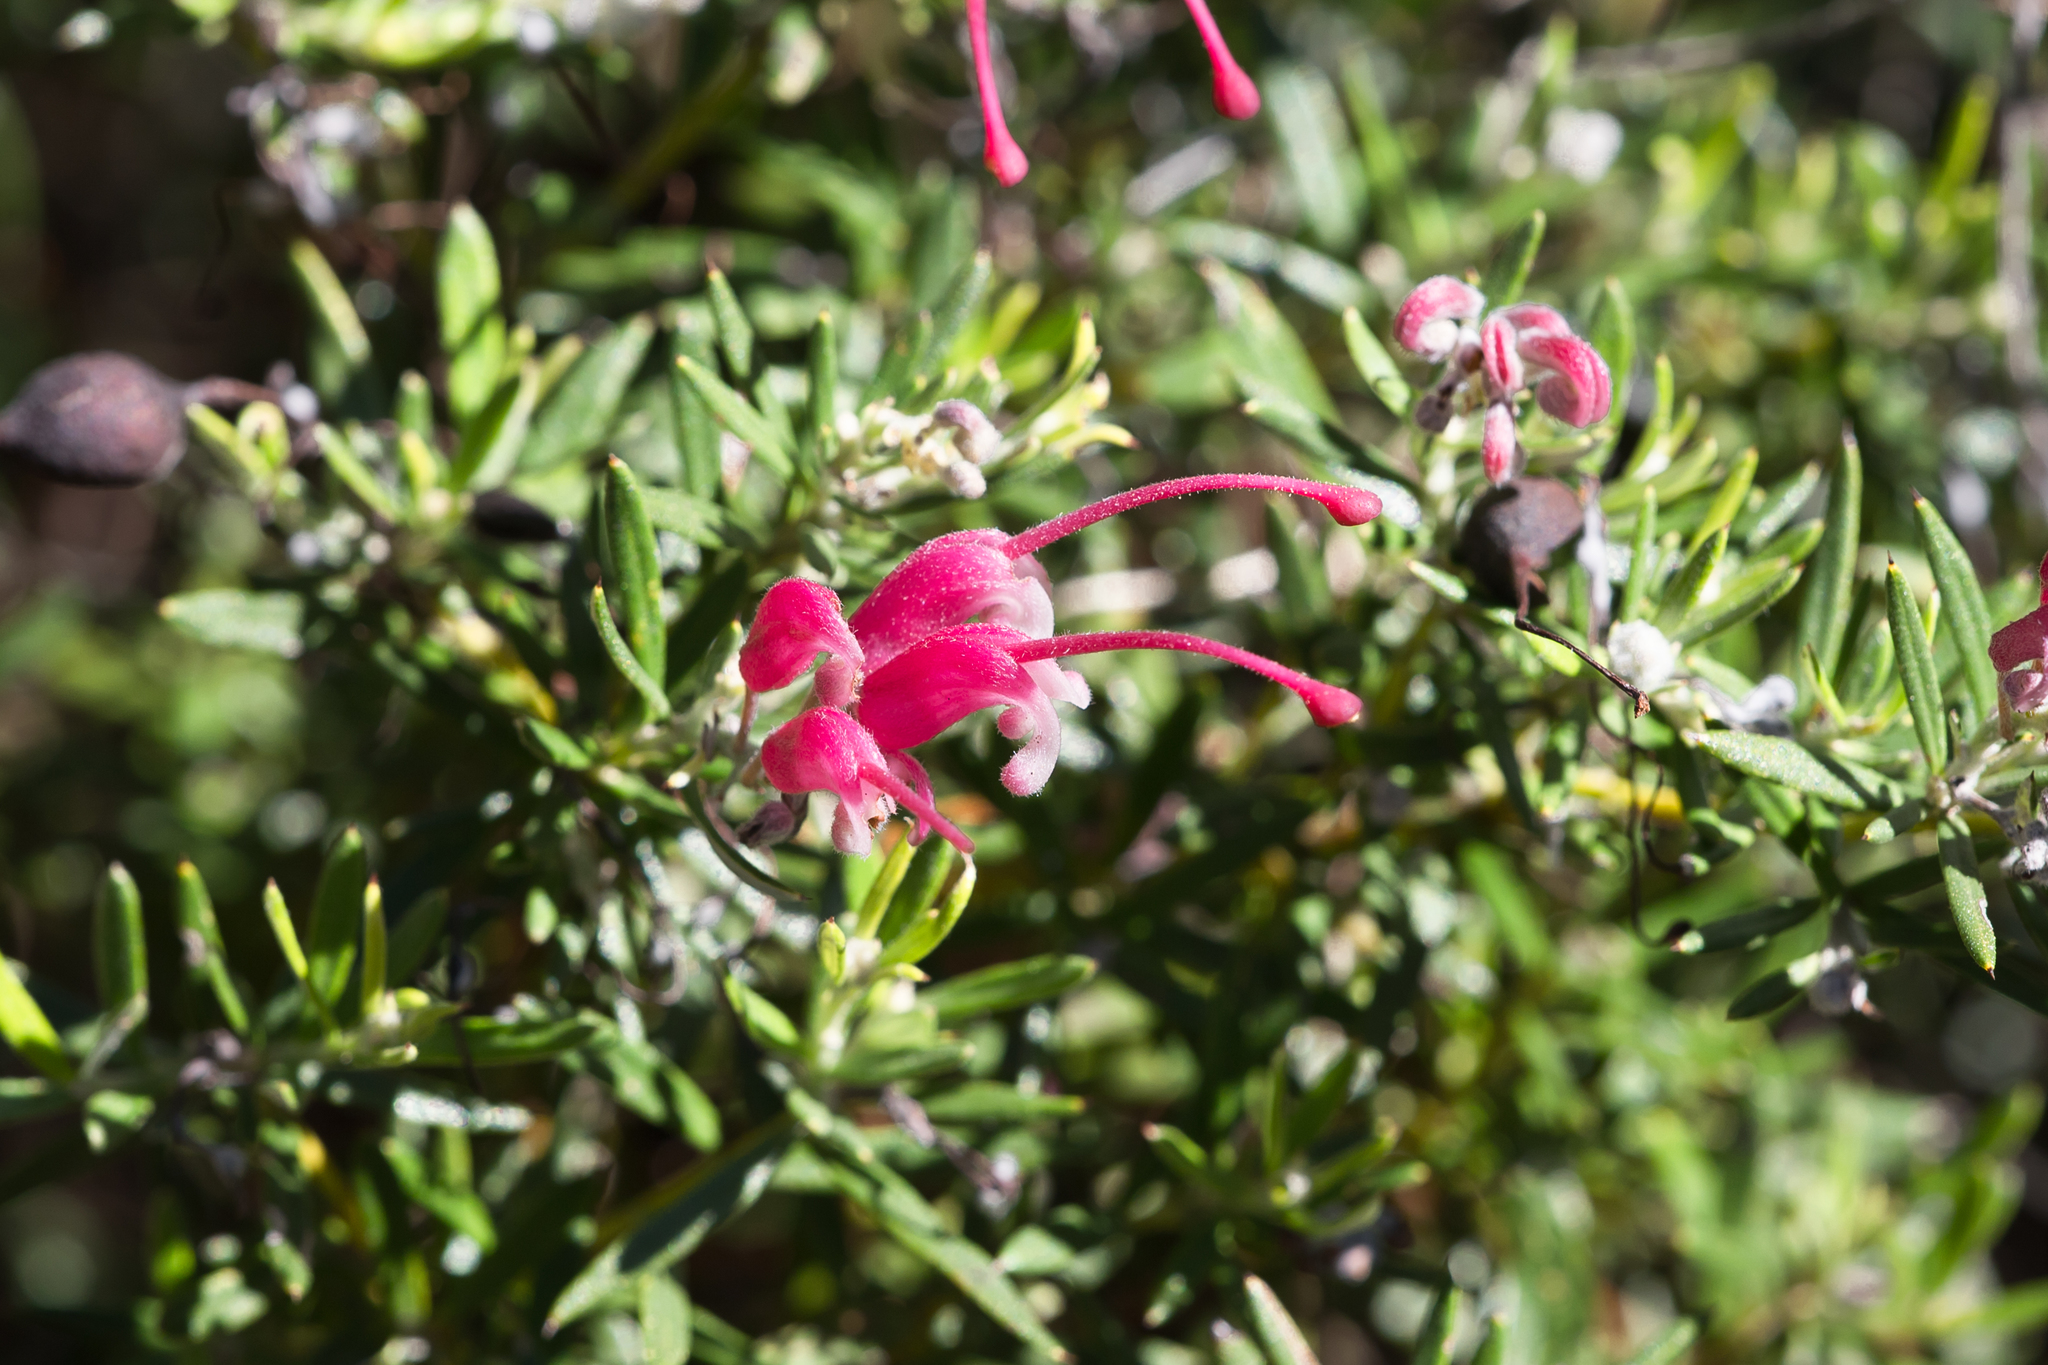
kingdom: Plantae
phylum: Tracheophyta
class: Magnoliopsida
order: Proteales
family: Proteaceae
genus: Grevillea
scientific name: Grevillea lavandulacea
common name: Lavender grevillea
